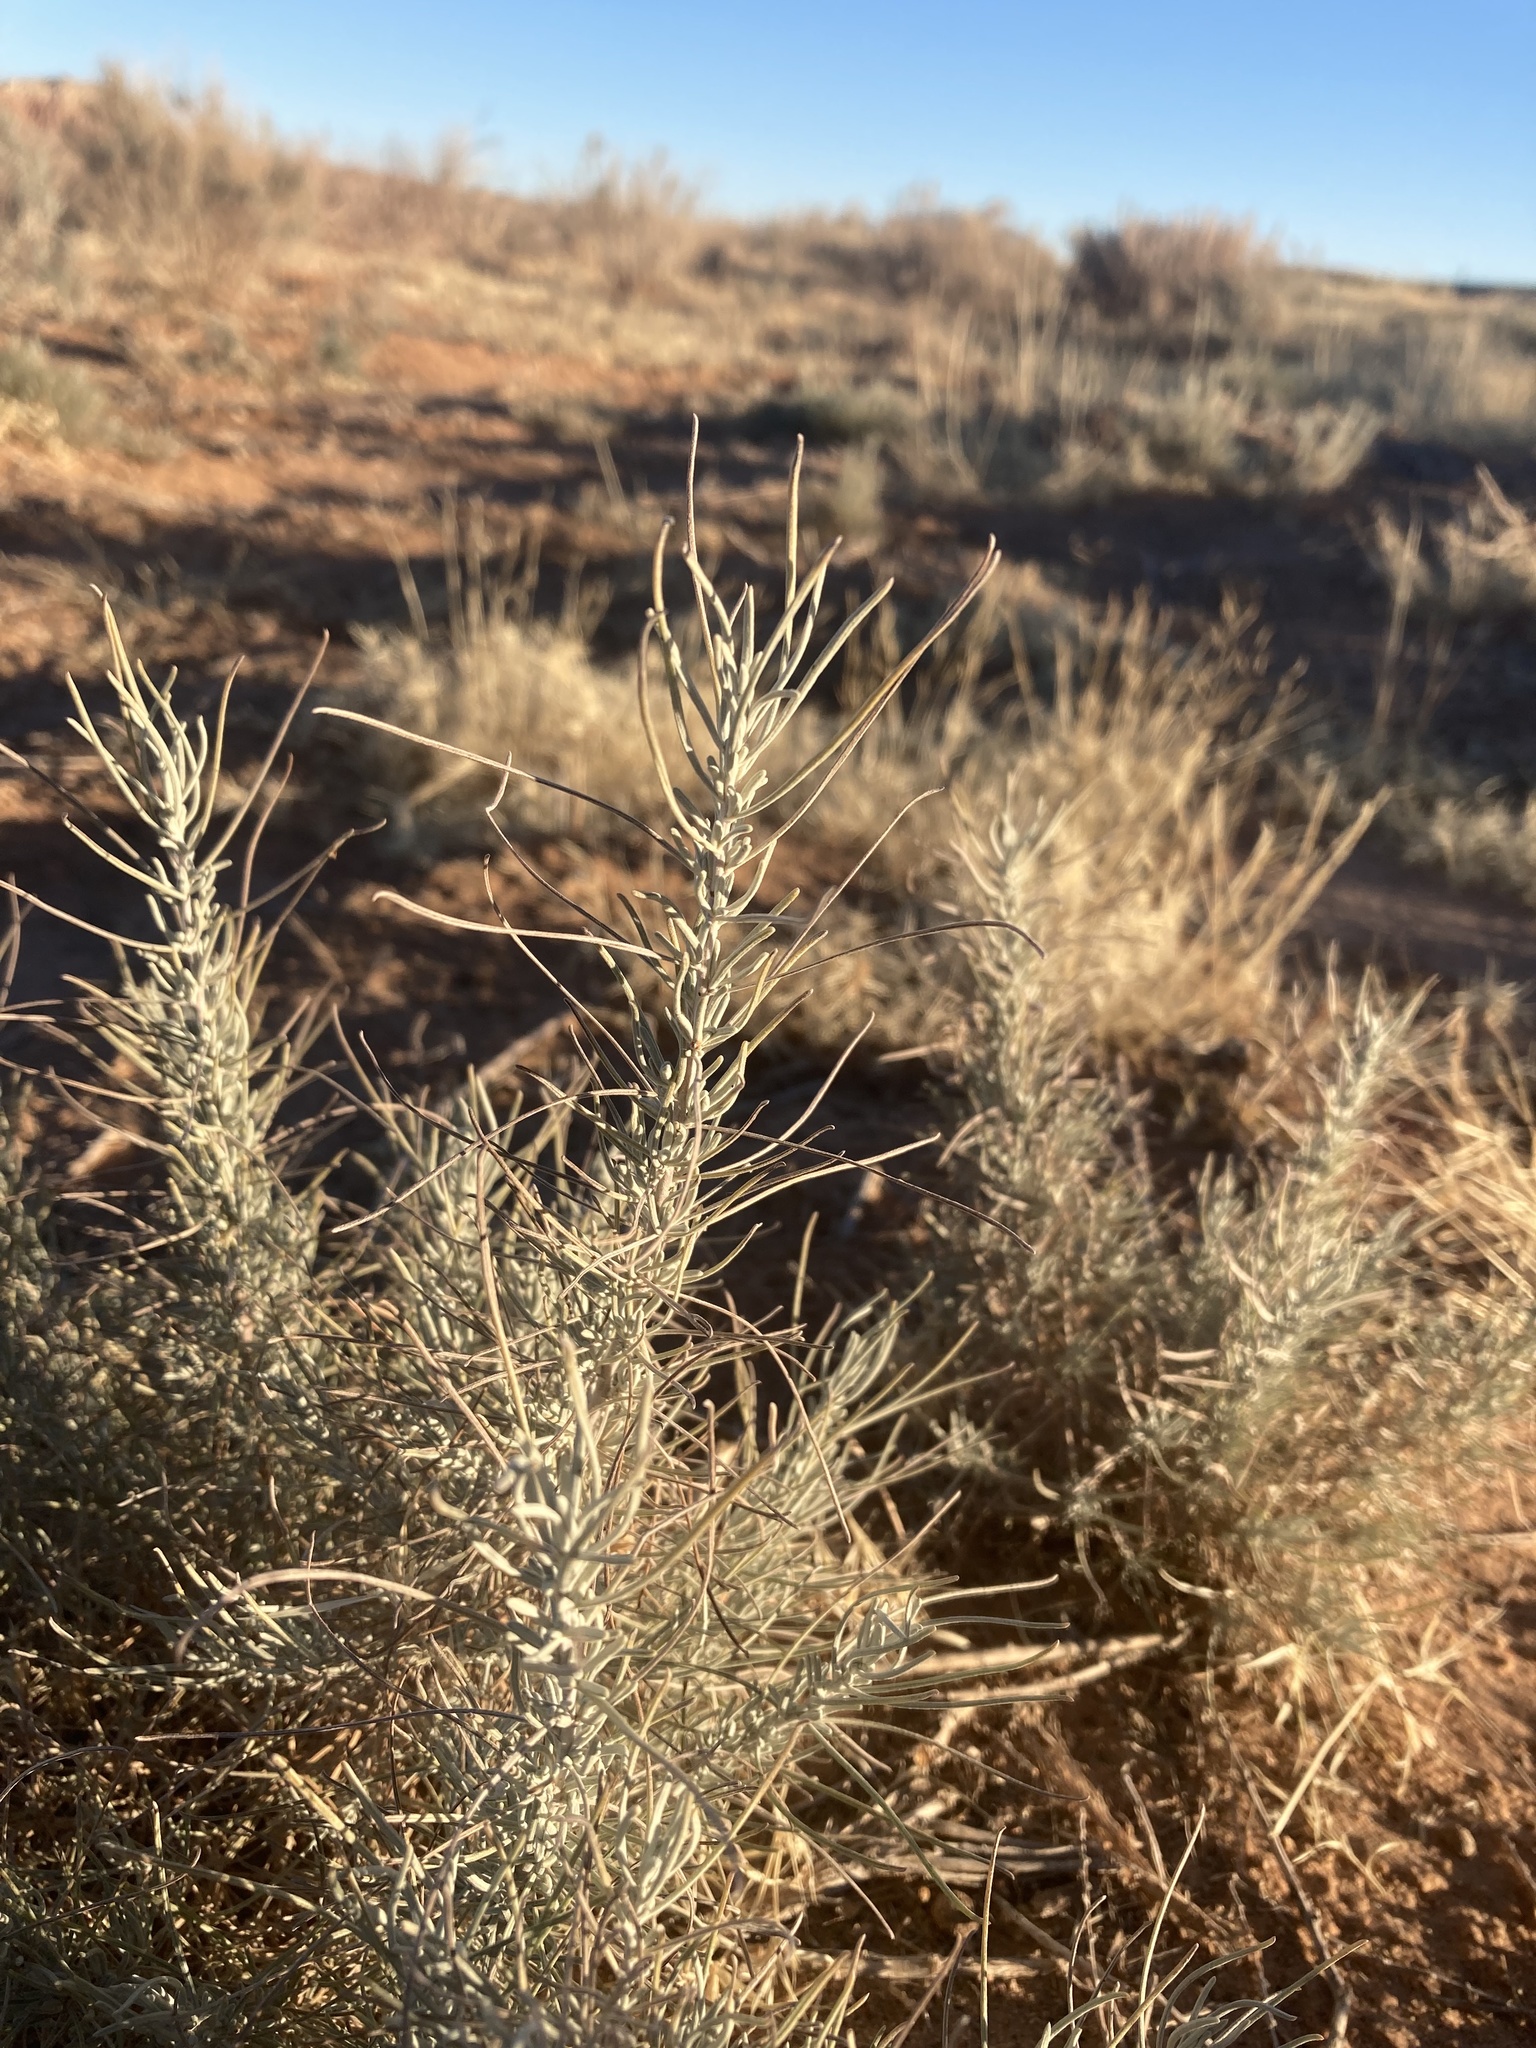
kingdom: Plantae
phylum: Tracheophyta
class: Magnoliopsida
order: Asterales
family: Asteraceae
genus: Artemisia
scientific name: Artemisia filifolia
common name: Sand-sage
